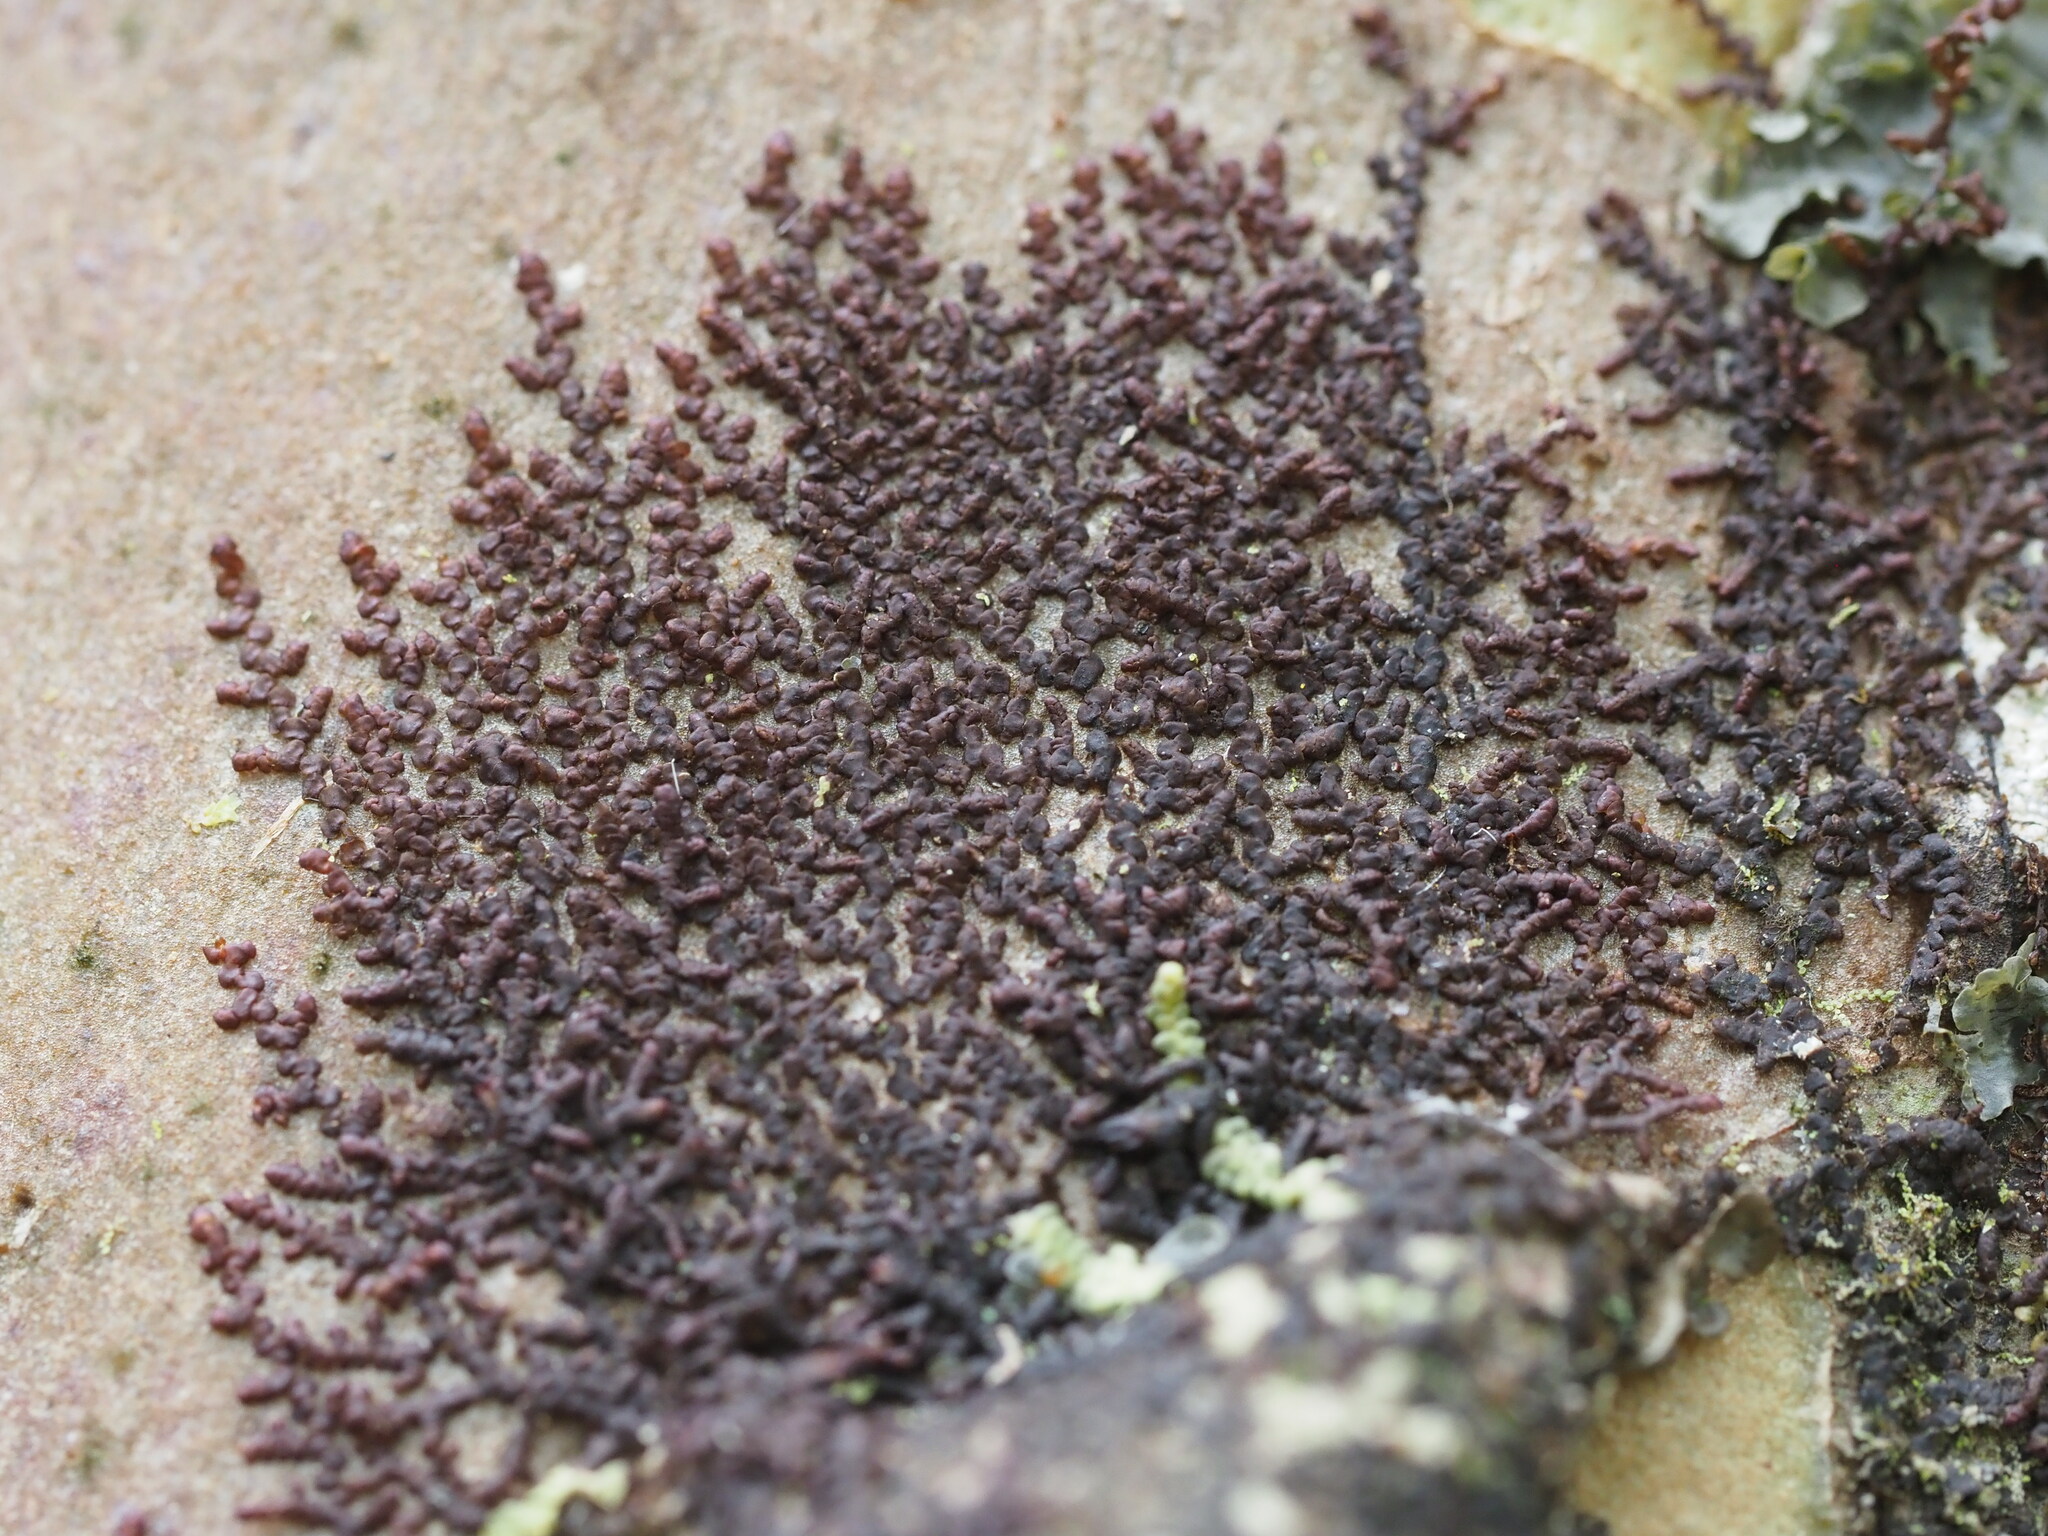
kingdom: Plantae
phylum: Marchantiophyta
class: Jungermanniopsida
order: Porellales
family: Frullaniaceae
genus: Frullania
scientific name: Frullania meyeniana
